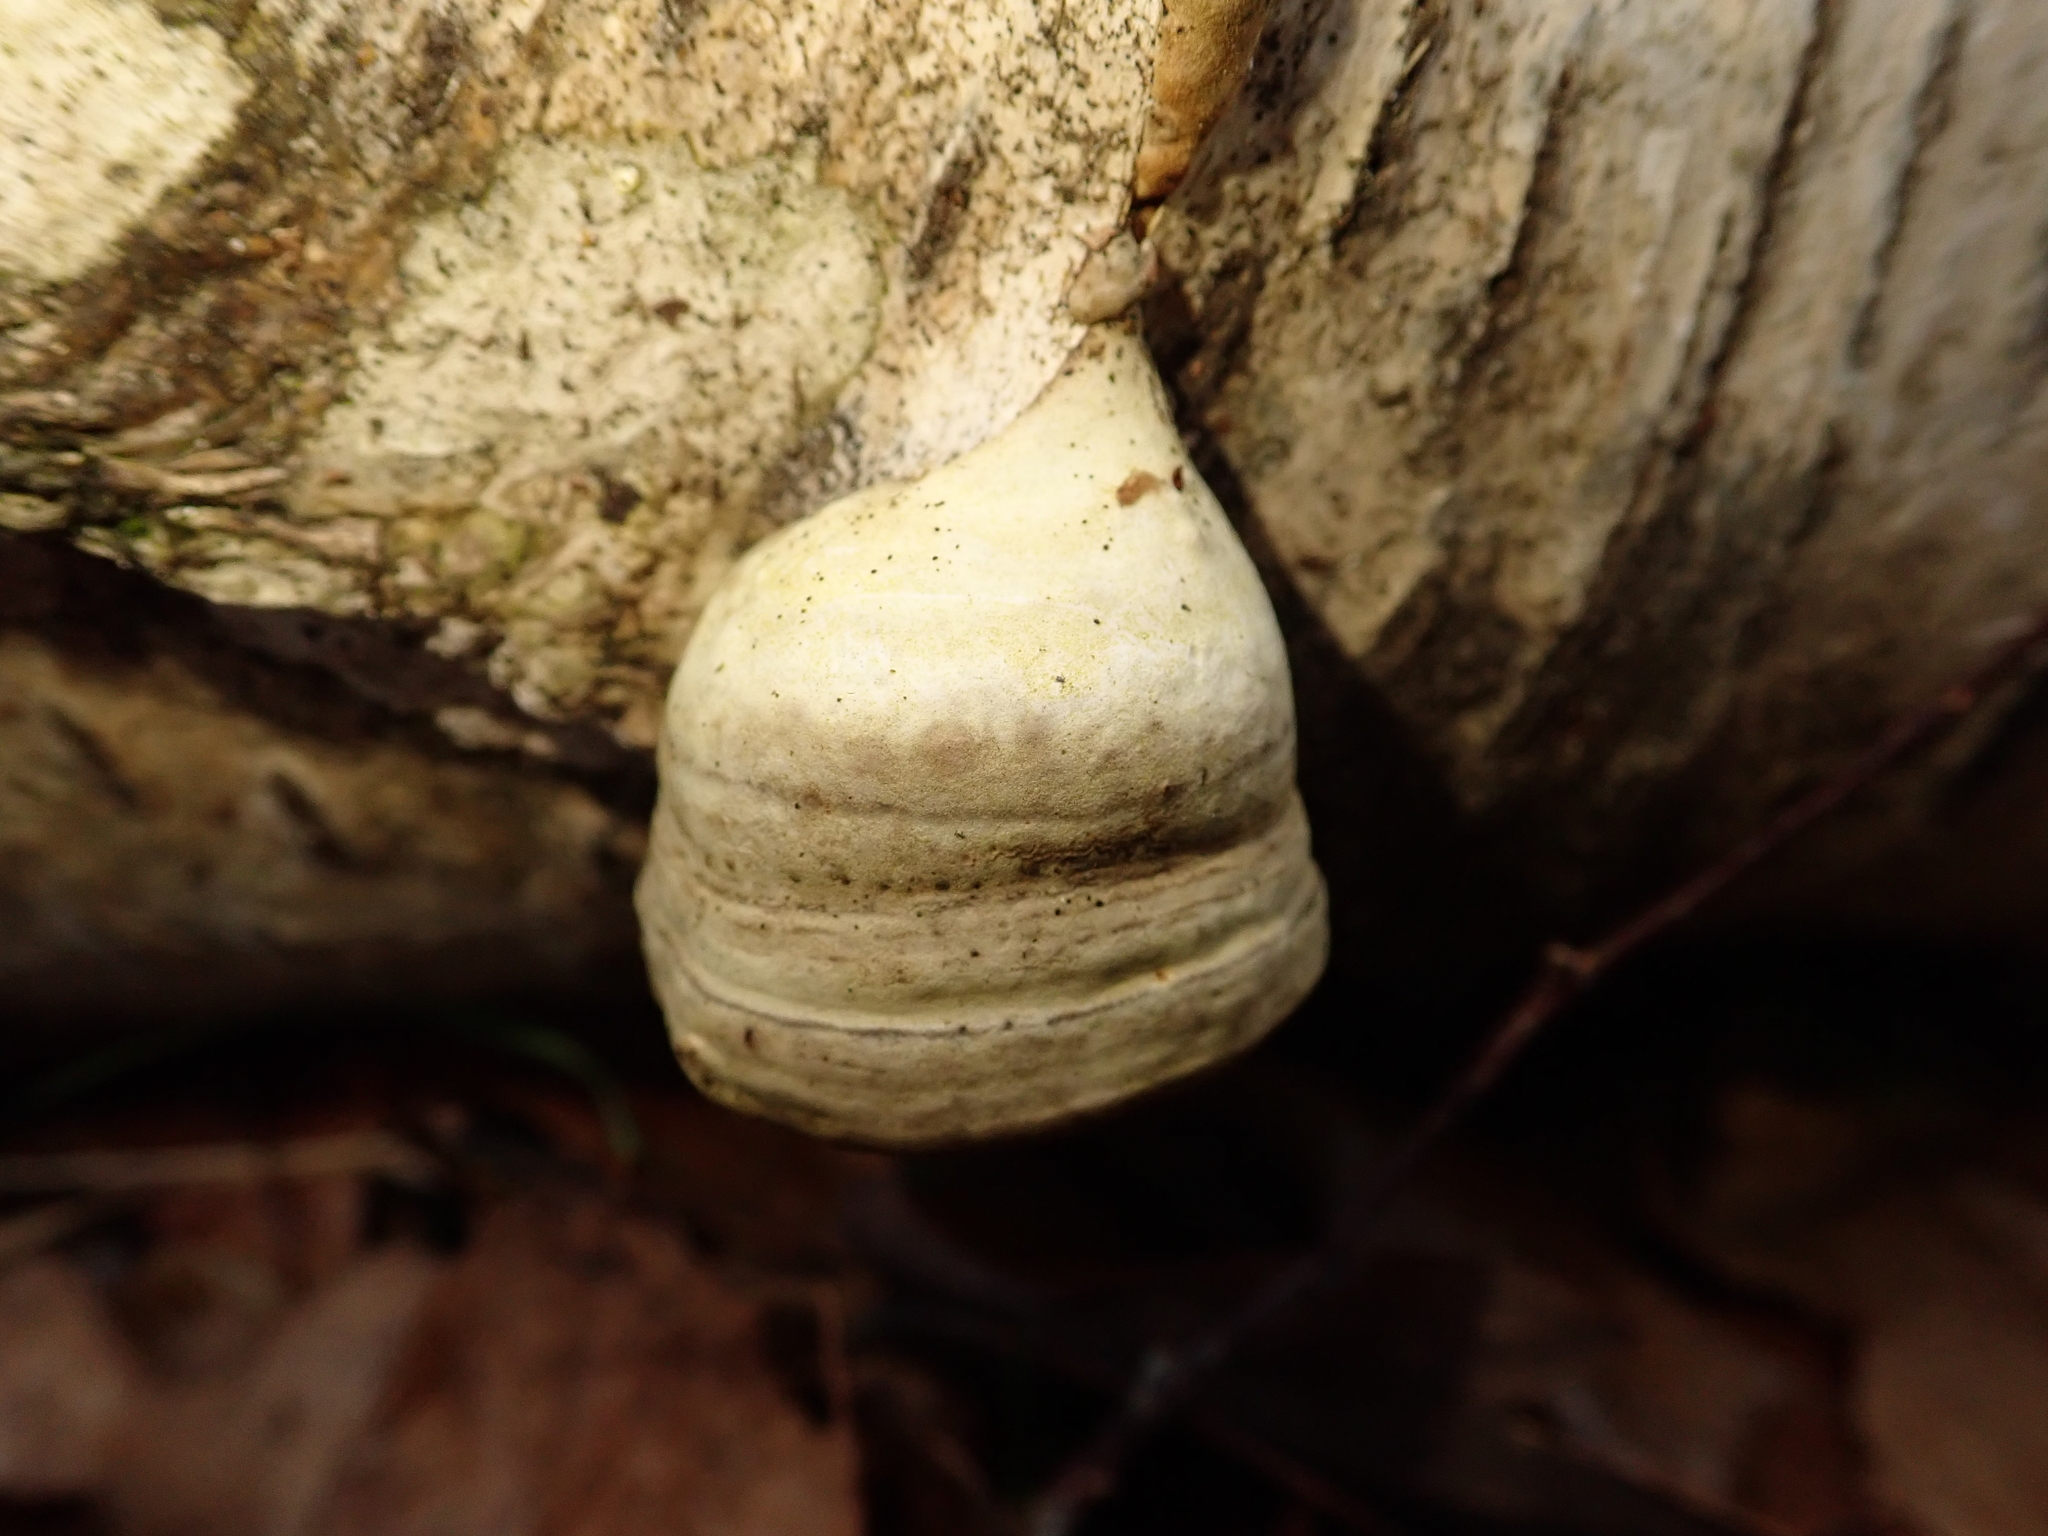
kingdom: Fungi
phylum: Basidiomycota
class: Agaricomycetes
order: Polyporales
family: Polyporaceae
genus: Fomes
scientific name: Fomes fomentarius
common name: Hoof fungus
